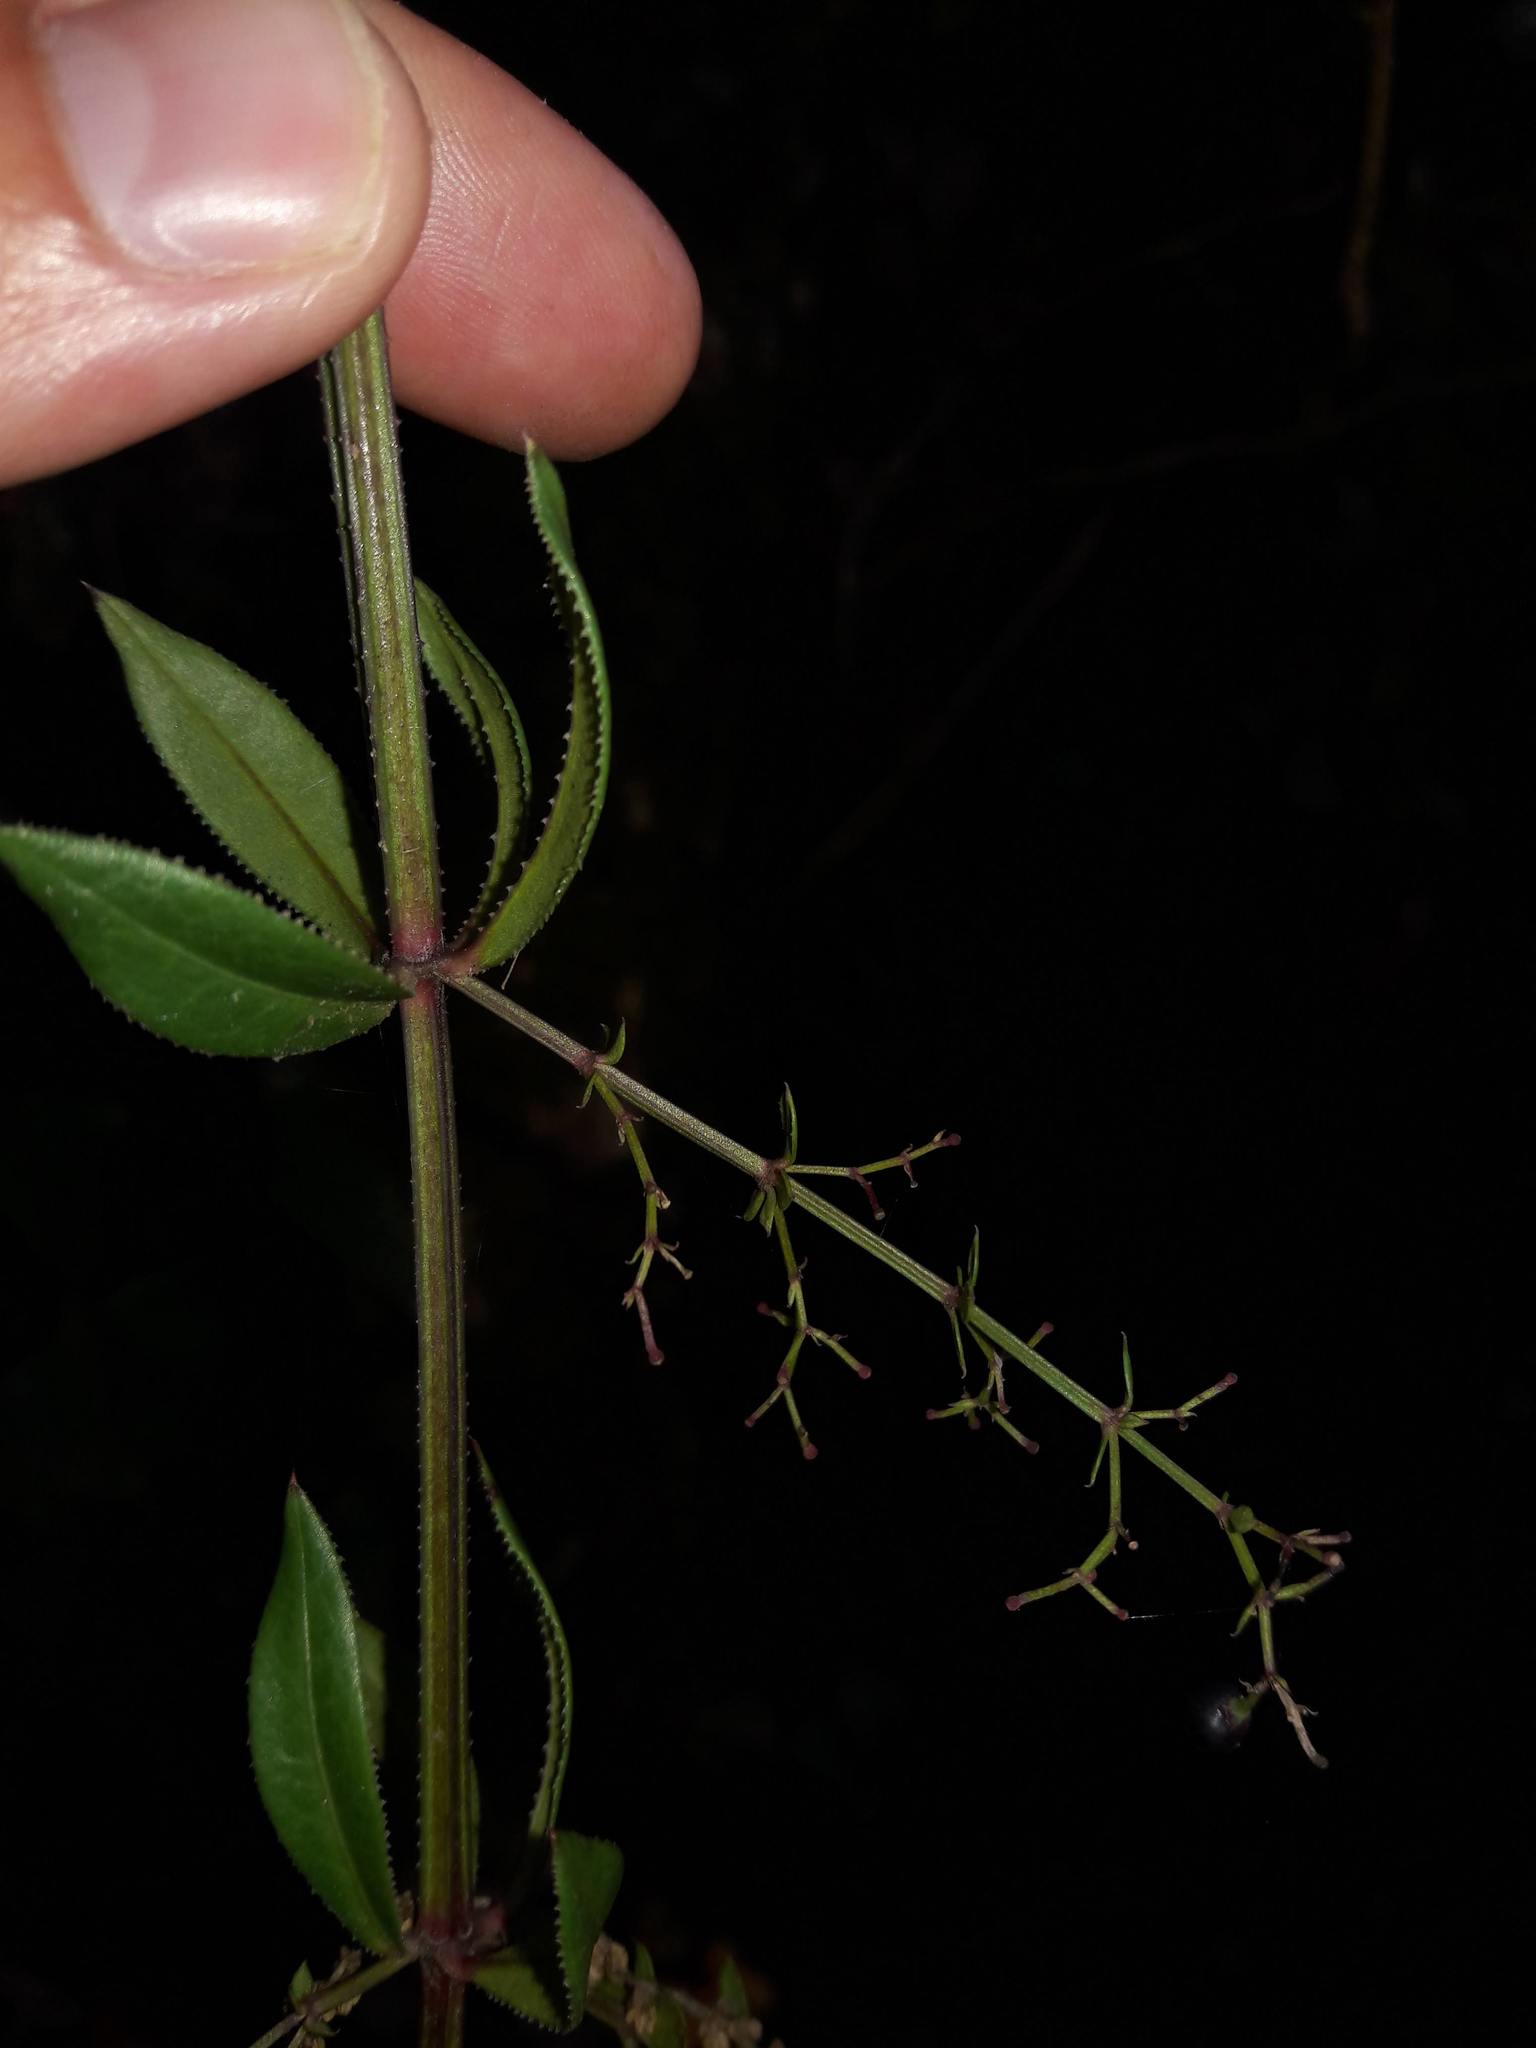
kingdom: Plantae
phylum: Tracheophyta
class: Magnoliopsida
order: Gentianales
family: Rubiaceae
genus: Rubia
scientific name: Rubia peregrina
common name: Wild madder
